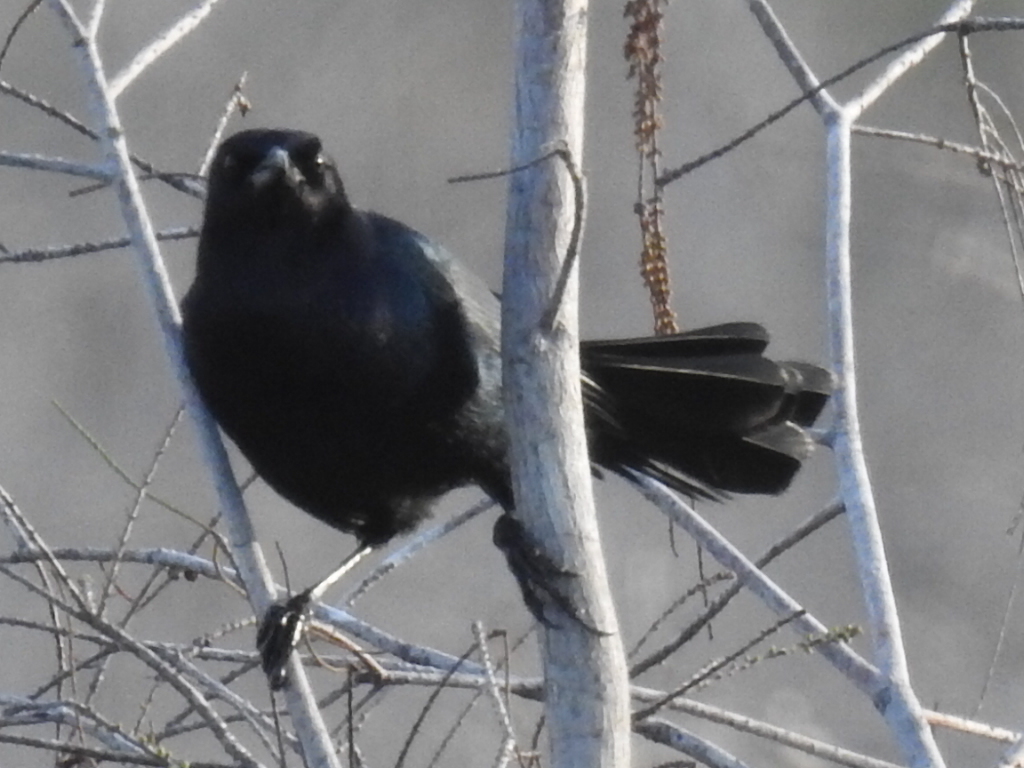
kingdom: Animalia
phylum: Chordata
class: Aves
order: Passeriformes
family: Icteridae
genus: Quiscalus
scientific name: Quiscalus major
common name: Boat-tailed grackle
